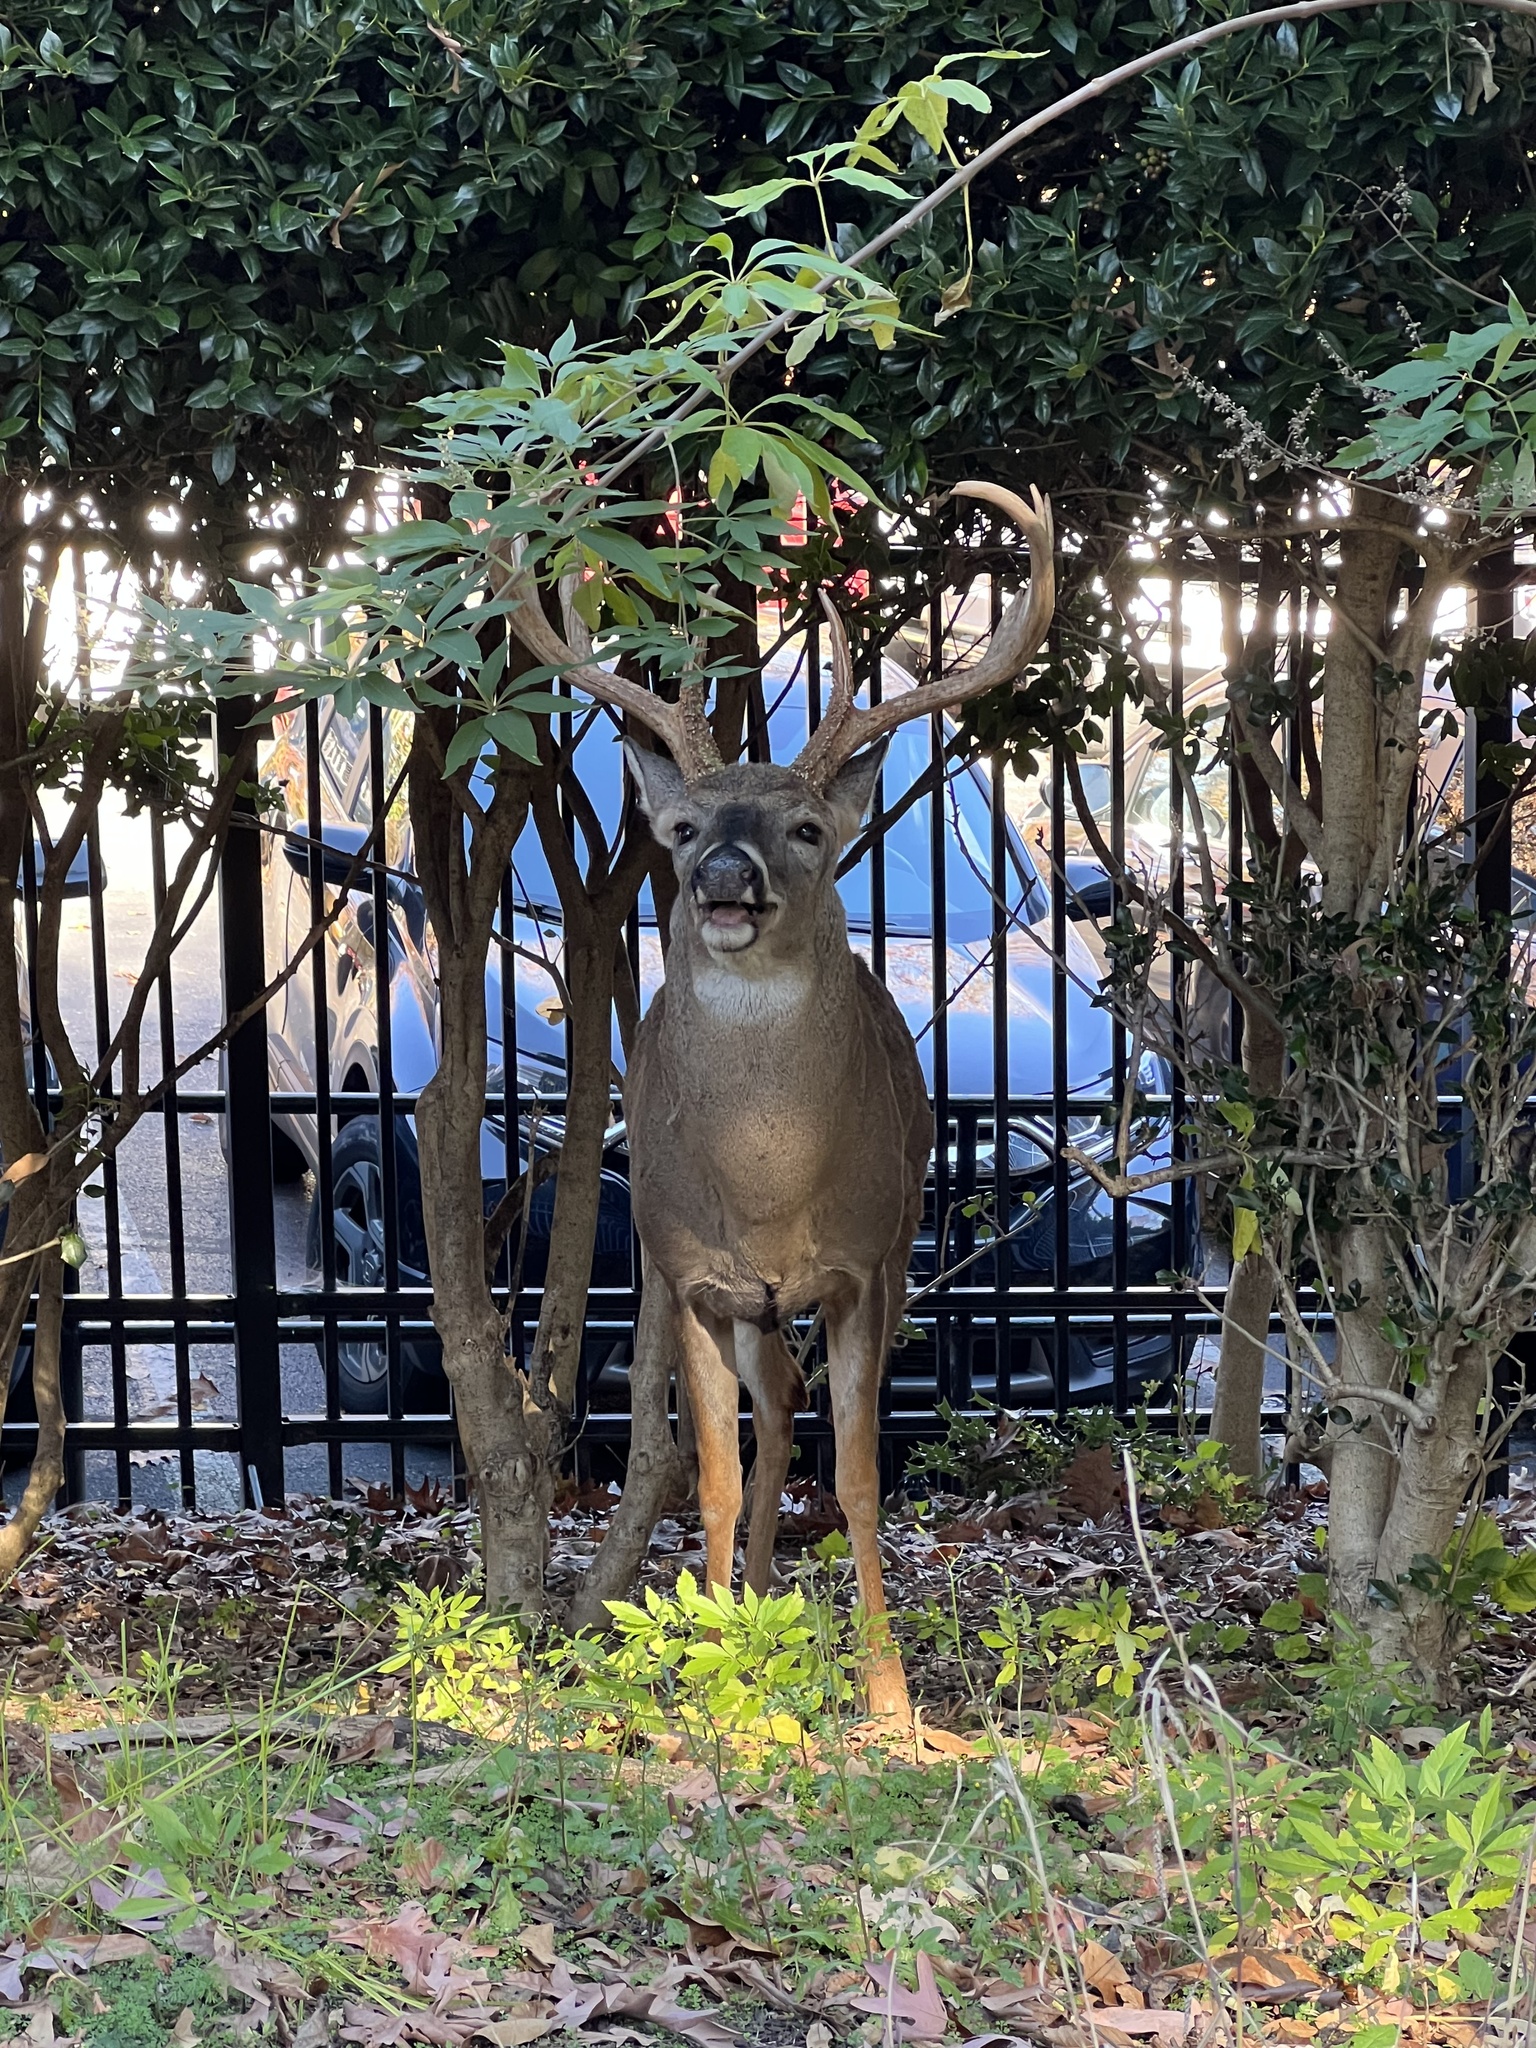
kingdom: Animalia
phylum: Chordata
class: Mammalia
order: Artiodactyla
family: Cervidae
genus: Odocoileus
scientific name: Odocoileus virginianus
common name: White-tailed deer
